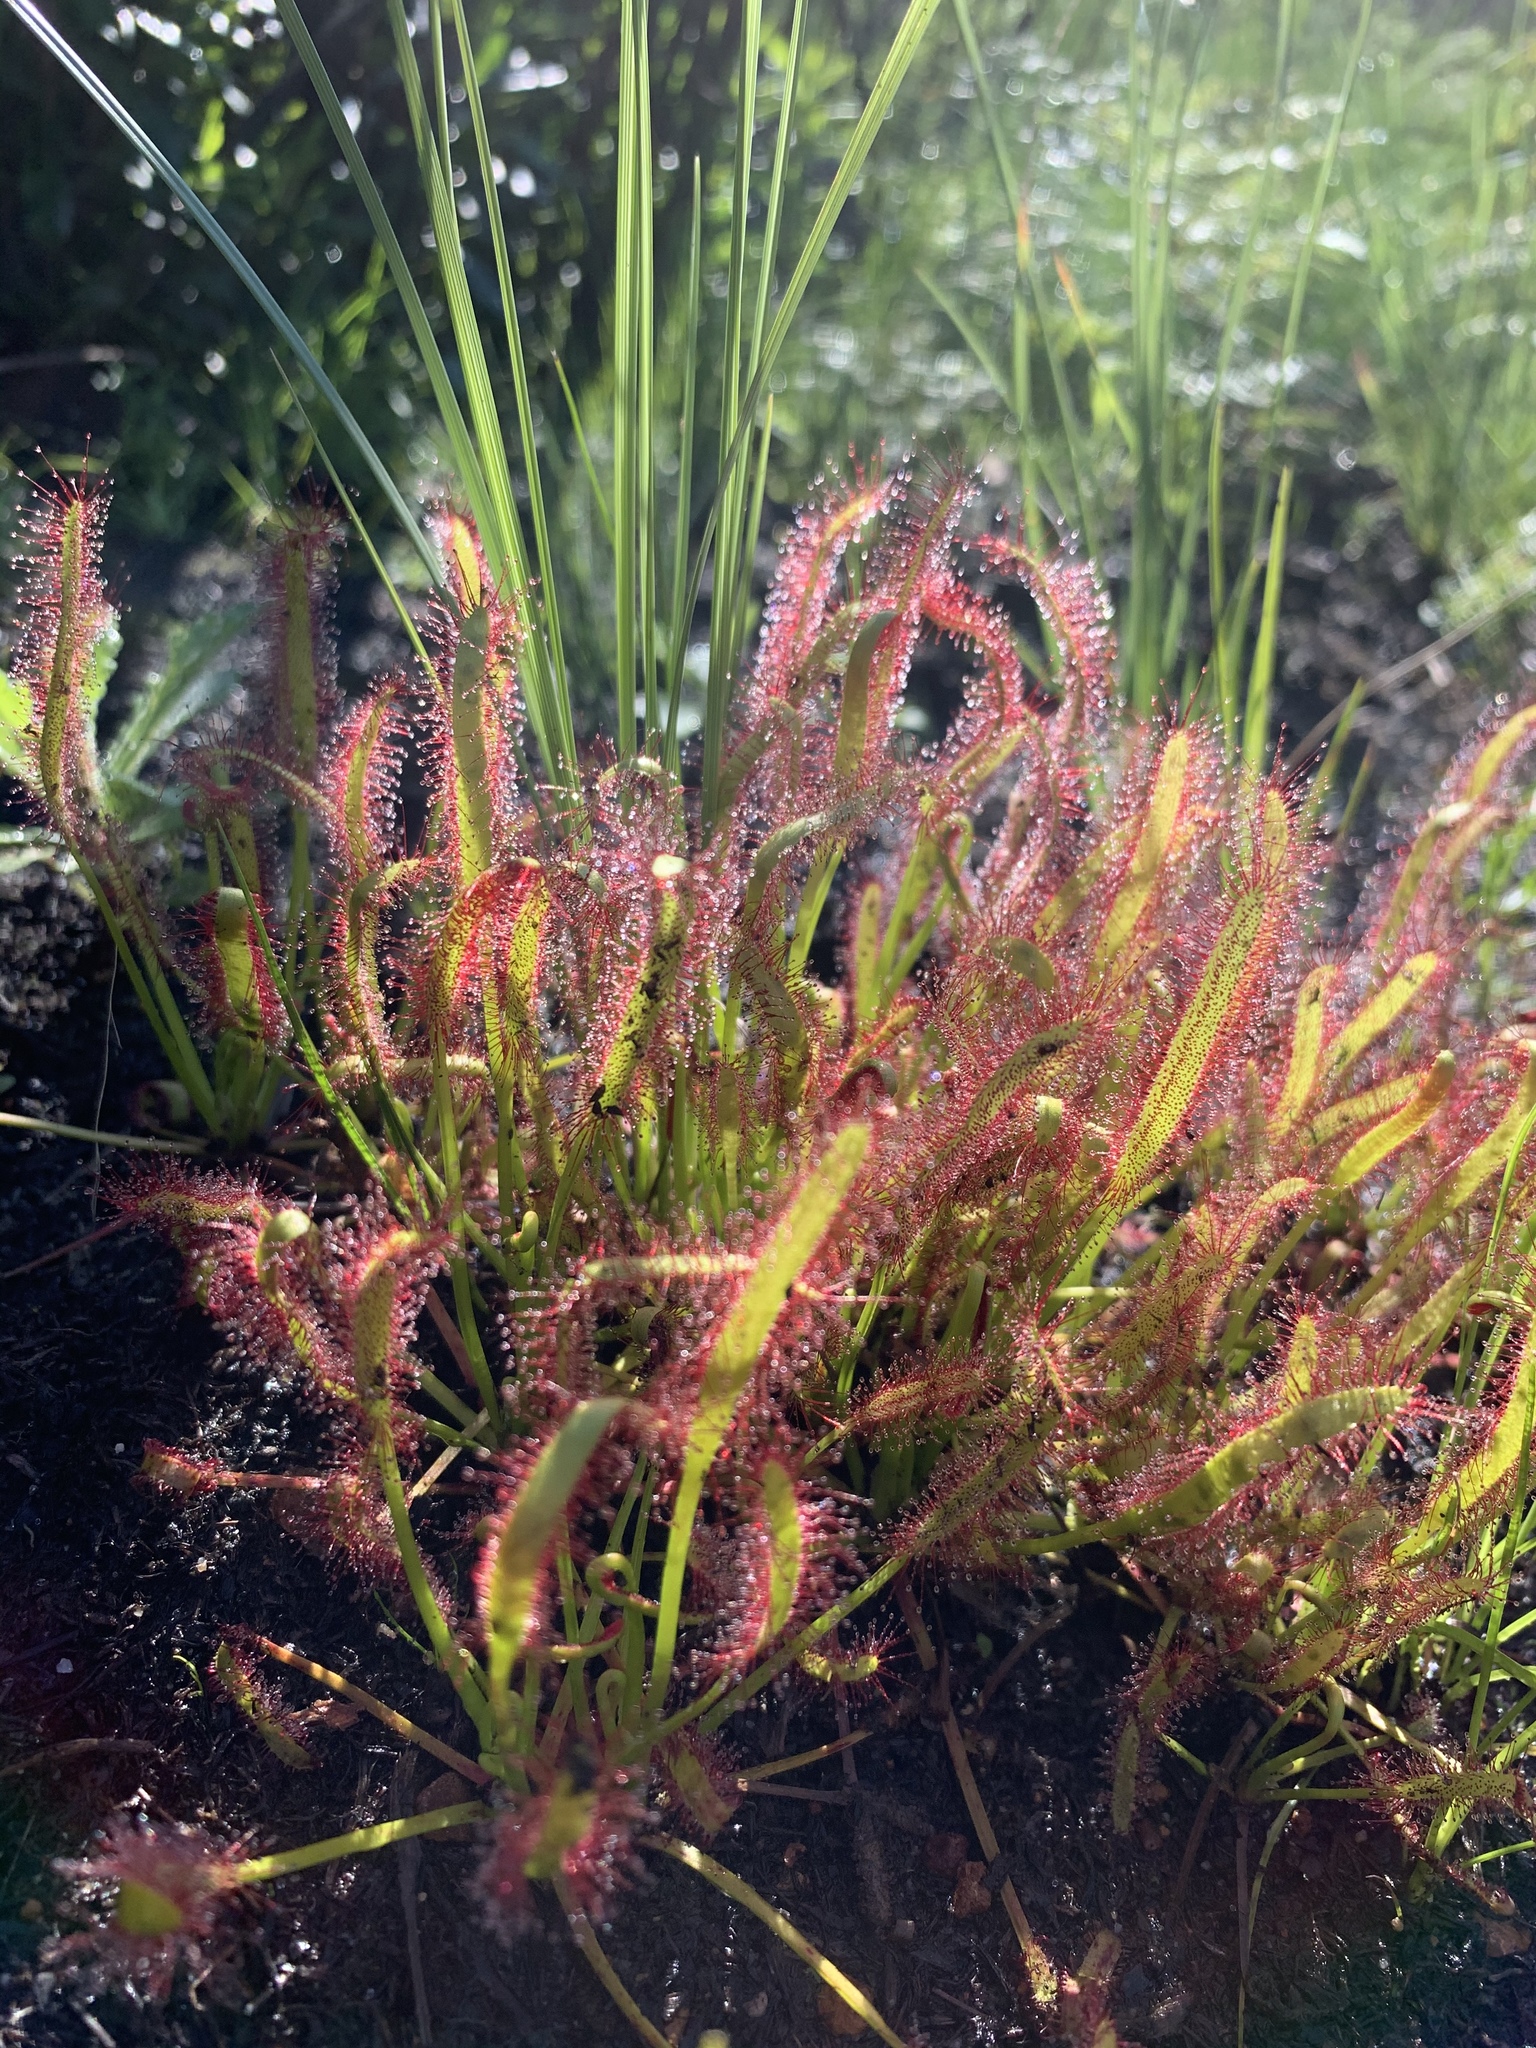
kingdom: Plantae
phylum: Tracheophyta
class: Magnoliopsida
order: Caryophyllales
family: Droseraceae
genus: Drosera
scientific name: Drosera capensis
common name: Cape sundew
